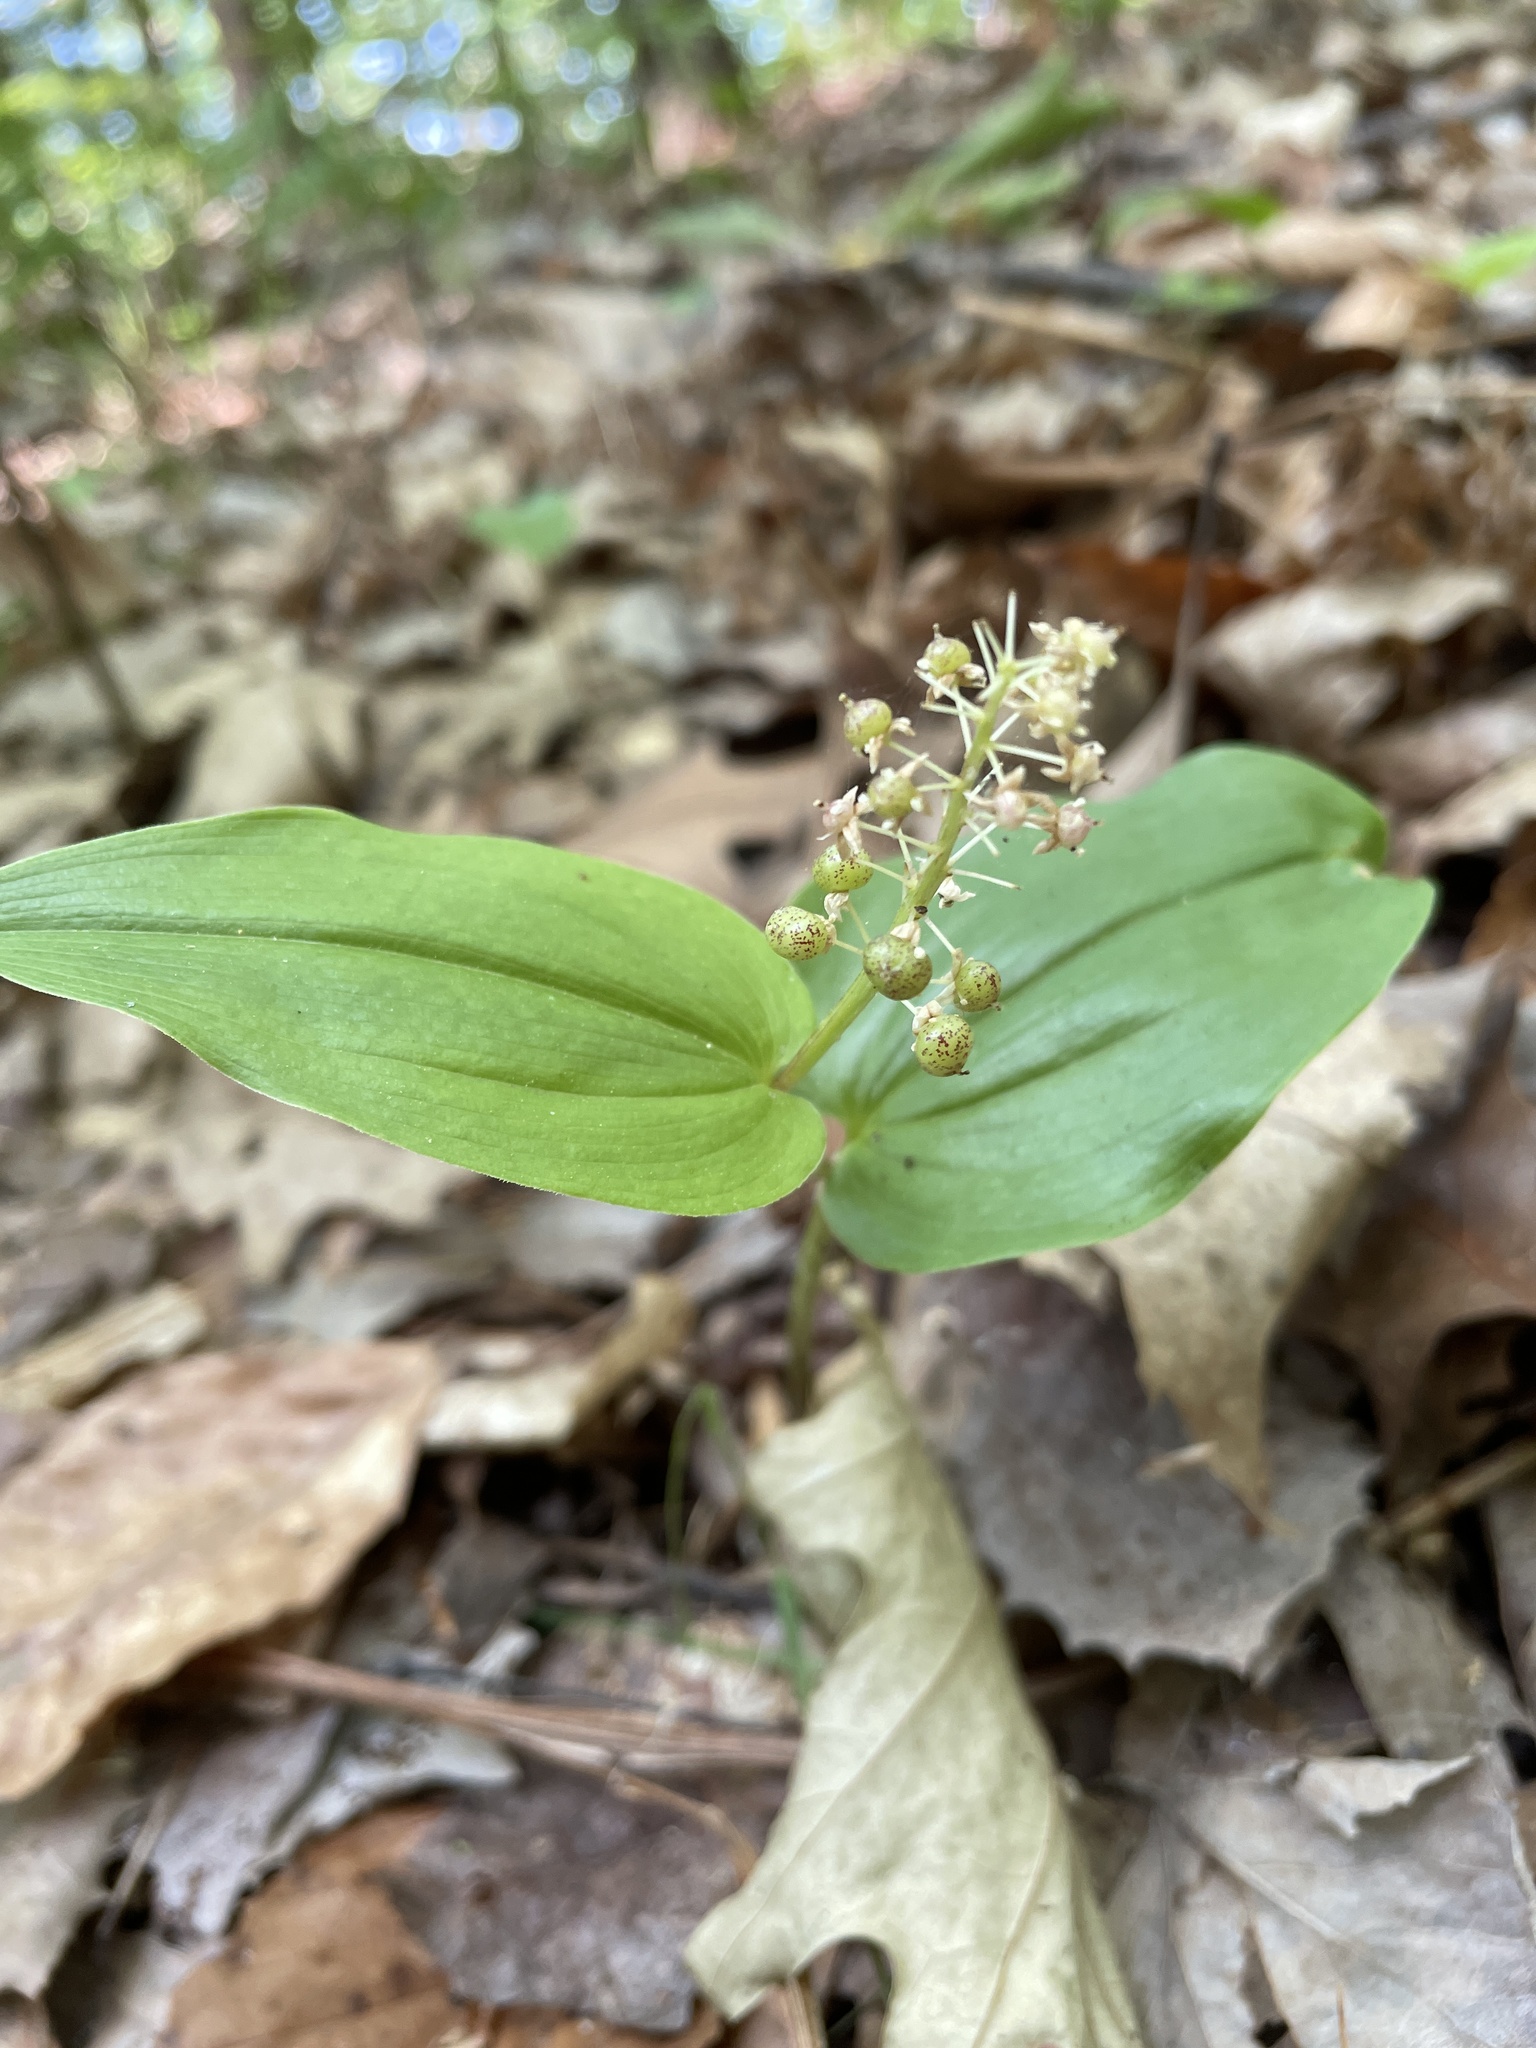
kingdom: Plantae
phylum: Tracheophyta
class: Liliopsida
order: Asparagales
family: Asparagaceae
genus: Maianthemum
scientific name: Maianthemum canadense
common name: False lily-of-the-valley
